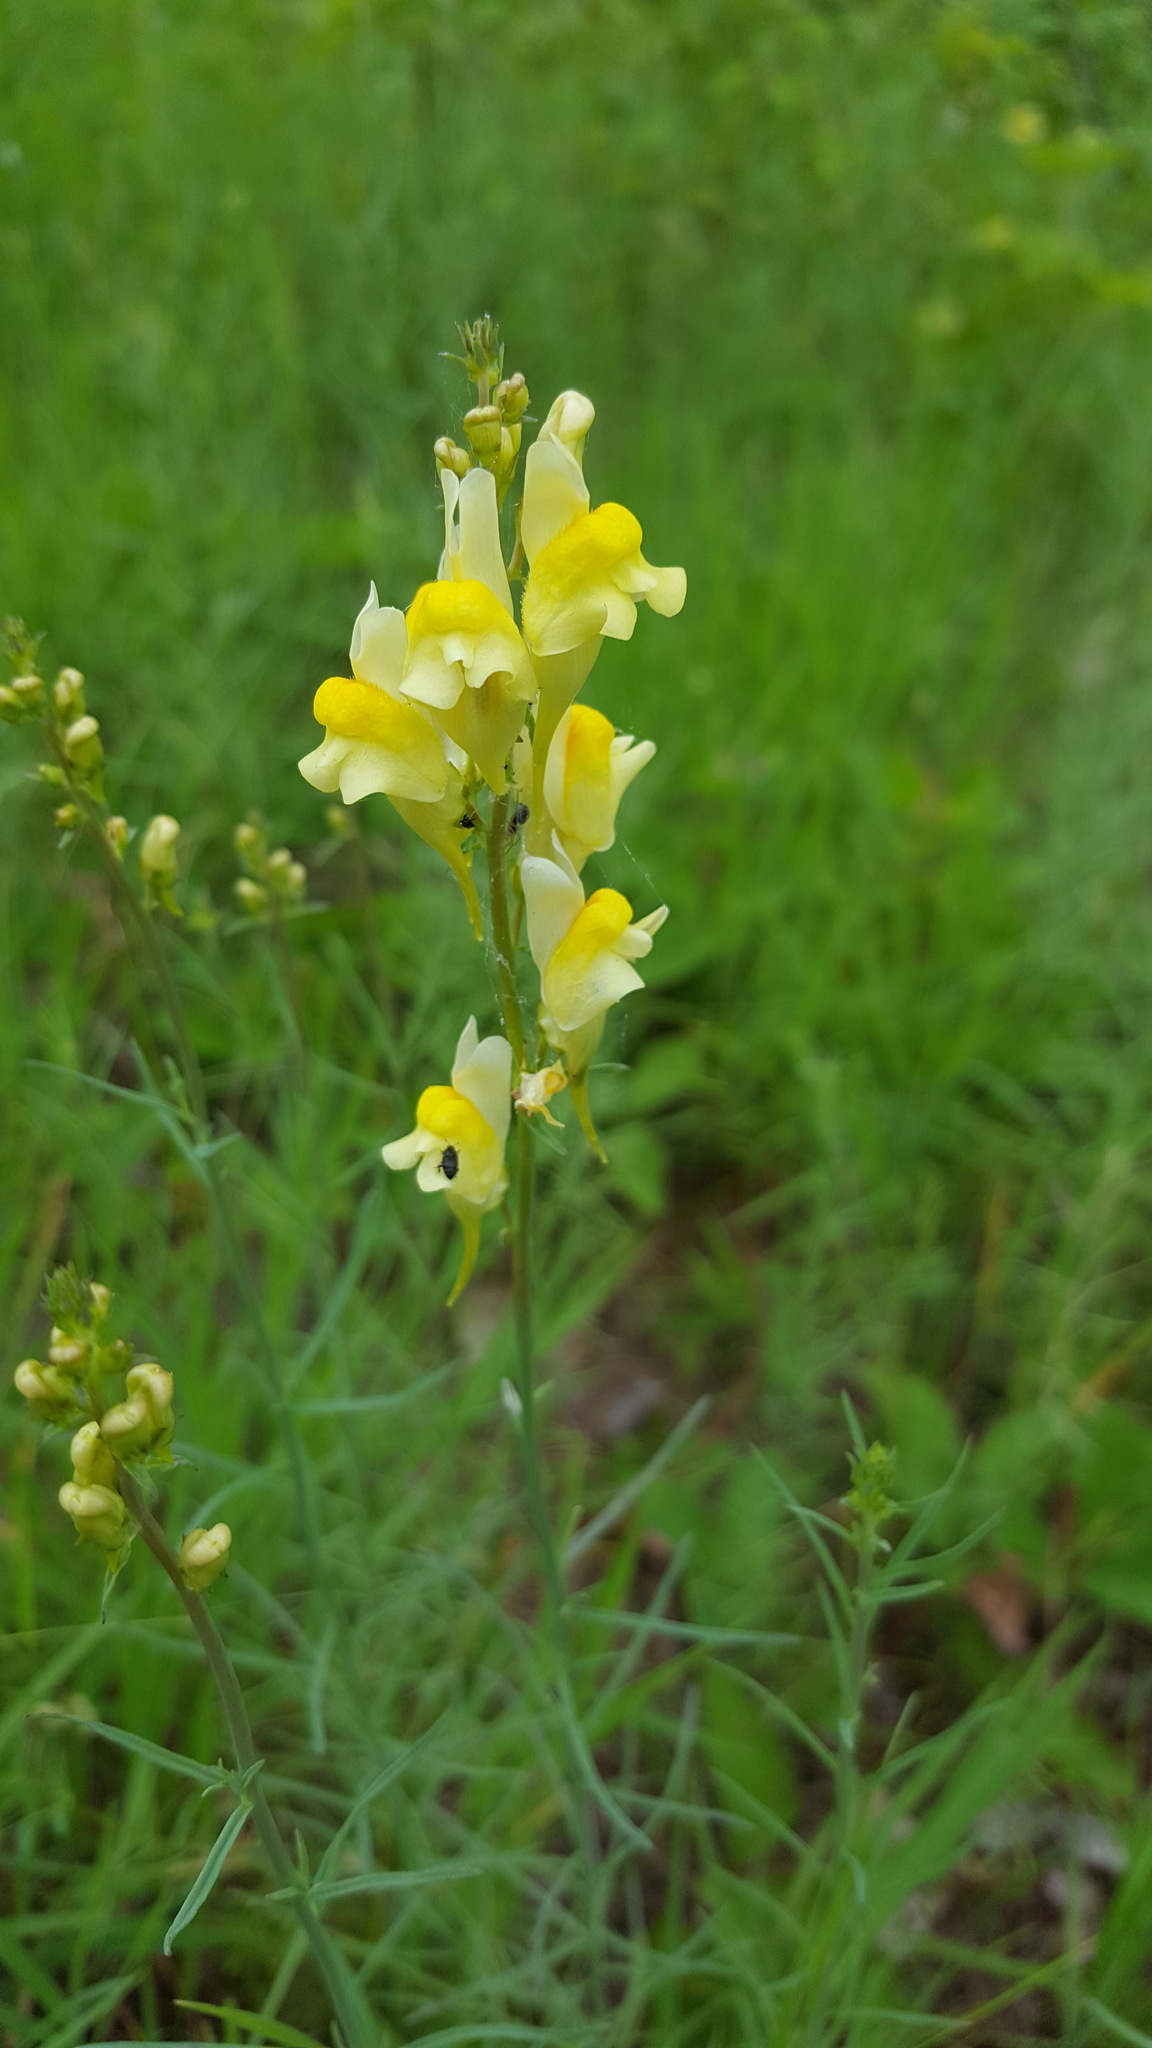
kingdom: Plantae
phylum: Tracheophyta
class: Magnoliopsida
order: Lamiales
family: Plantaginaceae
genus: Linaria
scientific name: Linaria vulgaris
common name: Butter and eggs
